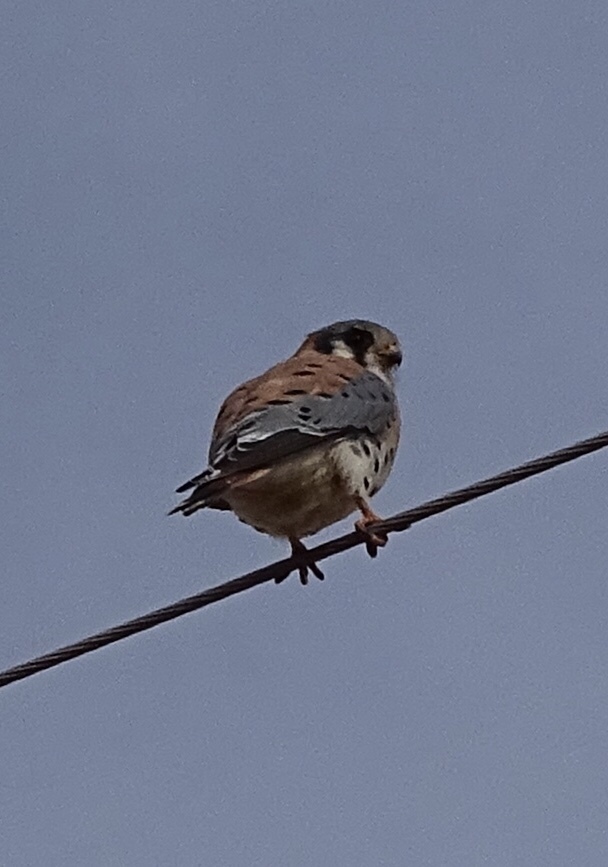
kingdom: Animalia
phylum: Chordata
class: Aves
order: Falconiformes
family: Falconidae
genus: Falco
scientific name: Falco sparverius
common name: American kestrel
